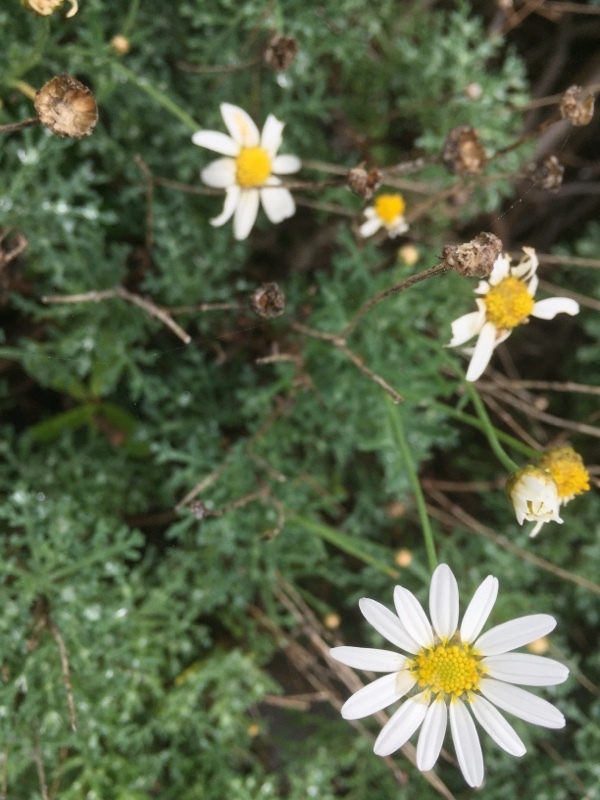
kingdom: Plantae
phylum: Tracheophyta
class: Magnoliopsida
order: Asterales
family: Asteraceae
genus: Argyranthemum
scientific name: Argyranthemum frutescens
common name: Paris daisy
